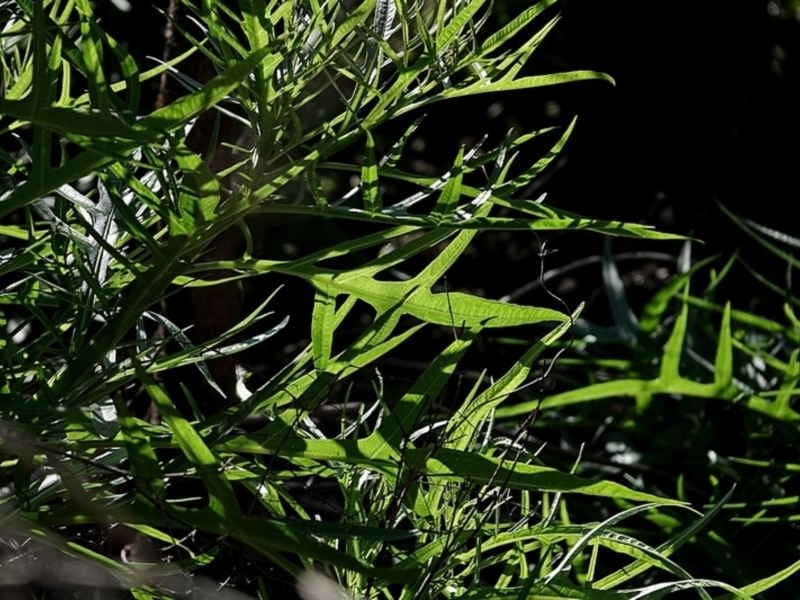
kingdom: Plantae
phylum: Tracheophyta
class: Magnoliopsida
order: Solanales
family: Solanaceae
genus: Solanum
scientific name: Solanum vescum
